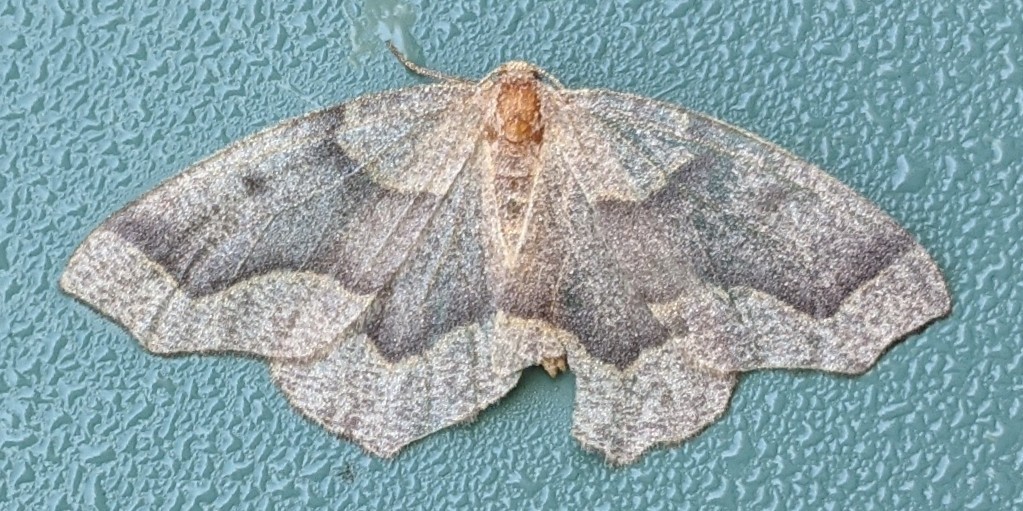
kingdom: Animalia
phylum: Arthropoda
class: Insecta
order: Lepidoptera
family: Geometridae
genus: Lambdina
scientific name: Lambdina fiscellaria
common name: Hemlock looper
